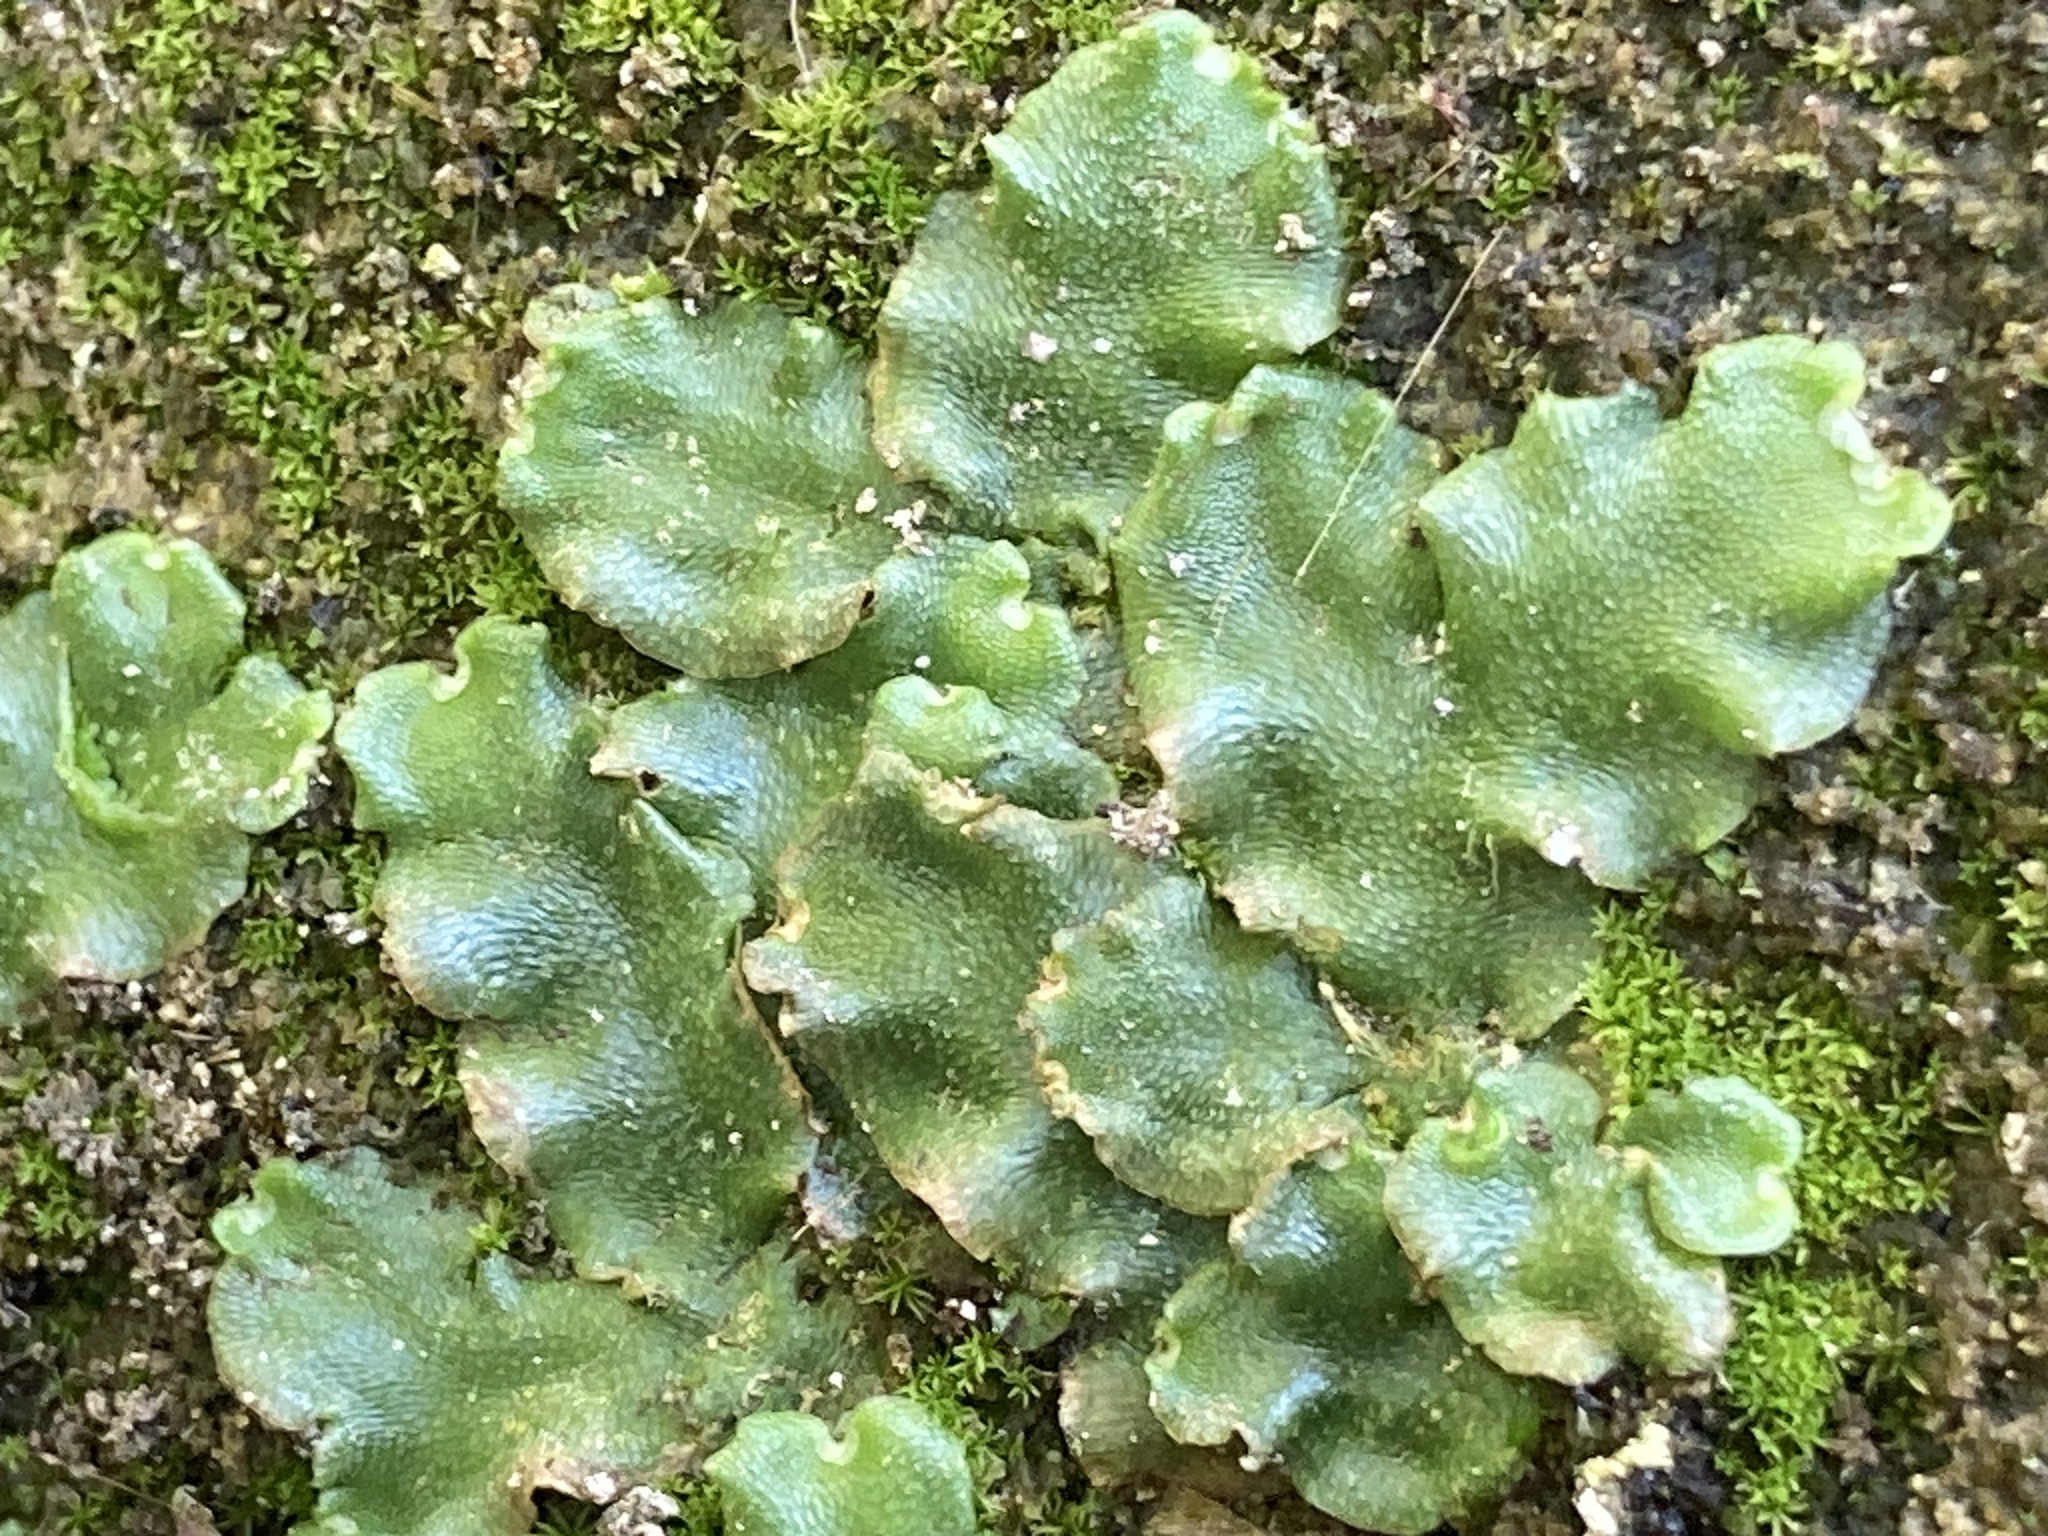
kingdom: Plantae
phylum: Marchantiophyta
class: Marchantiopsida
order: Lunulariales
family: Lunulariaceae
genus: Lunularia
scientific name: Lunularia cruciata
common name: Crescent-cup liverwort
